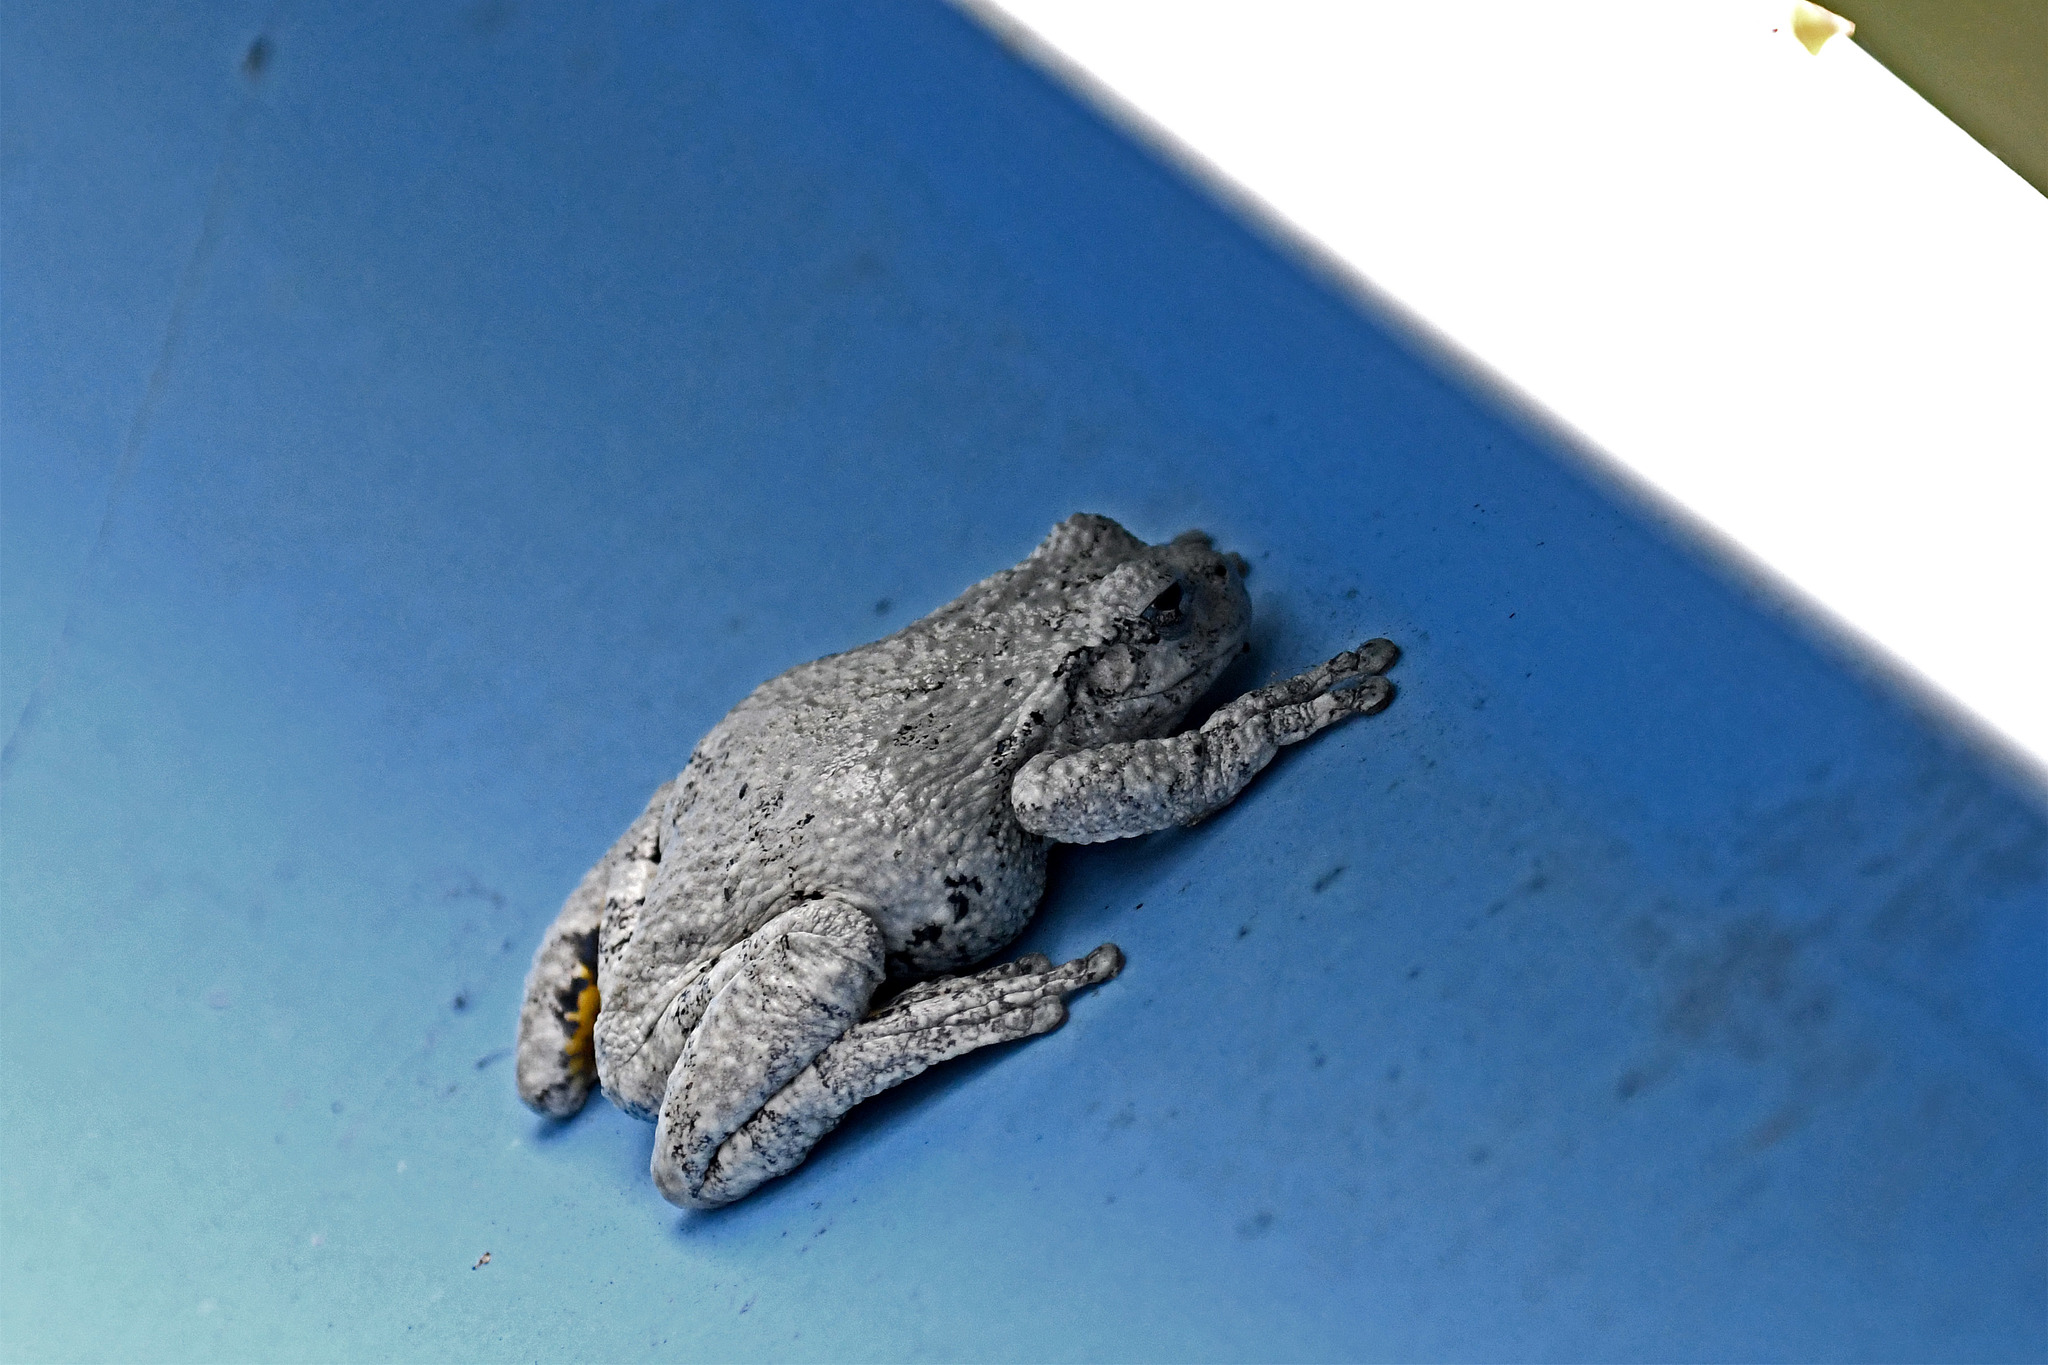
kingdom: Animalia
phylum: Chordata
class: Amphibia
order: Anura
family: Hylidae
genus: Dryophytes
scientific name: Dryophytes versicolor
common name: Gray treefrog
